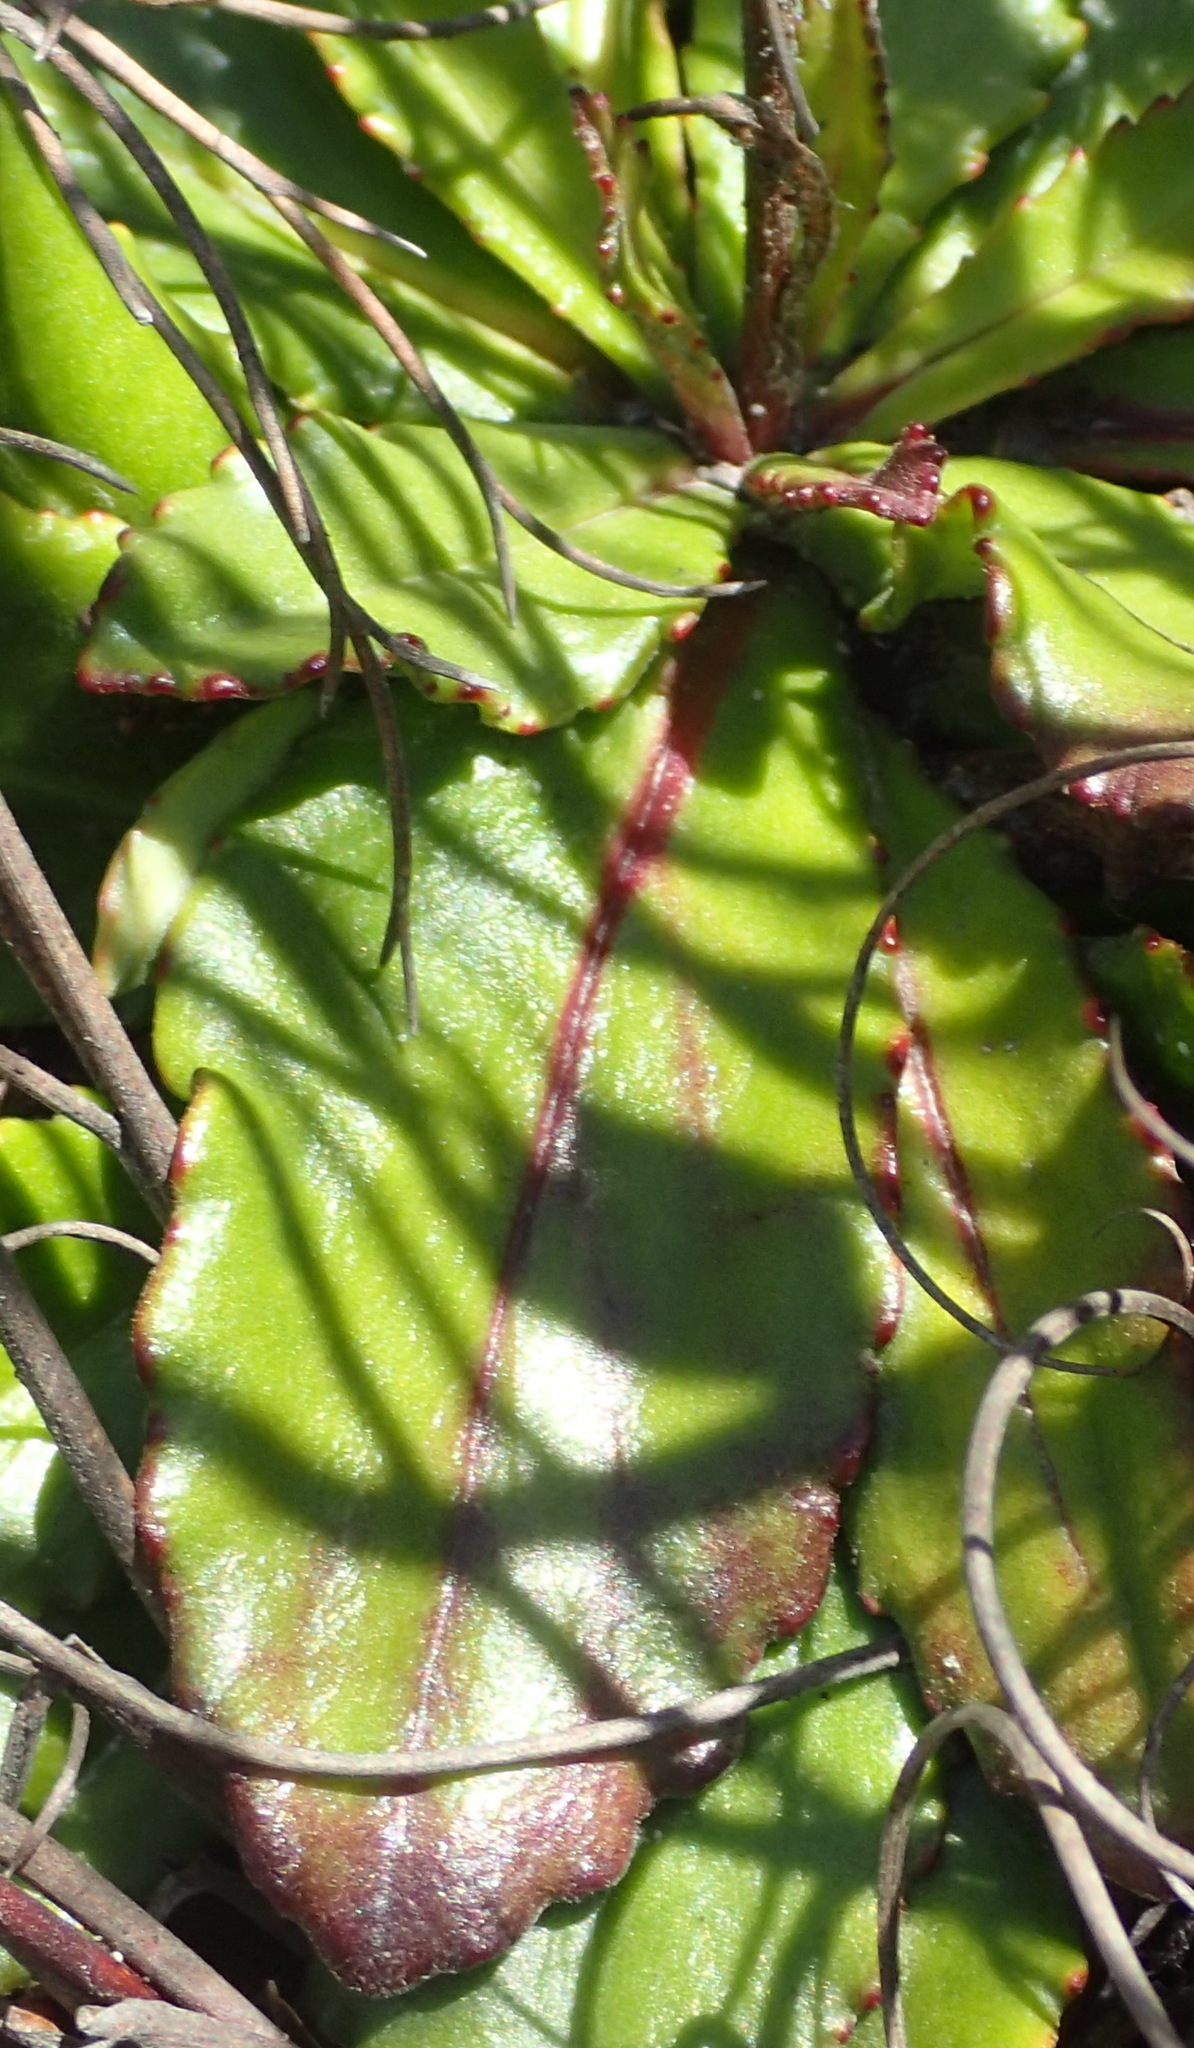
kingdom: Plantae
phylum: Tracheophyta
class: Magnoliopsida
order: Asterales
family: Asteraceae
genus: Zyrphelis
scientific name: Zyrphelis crenata
